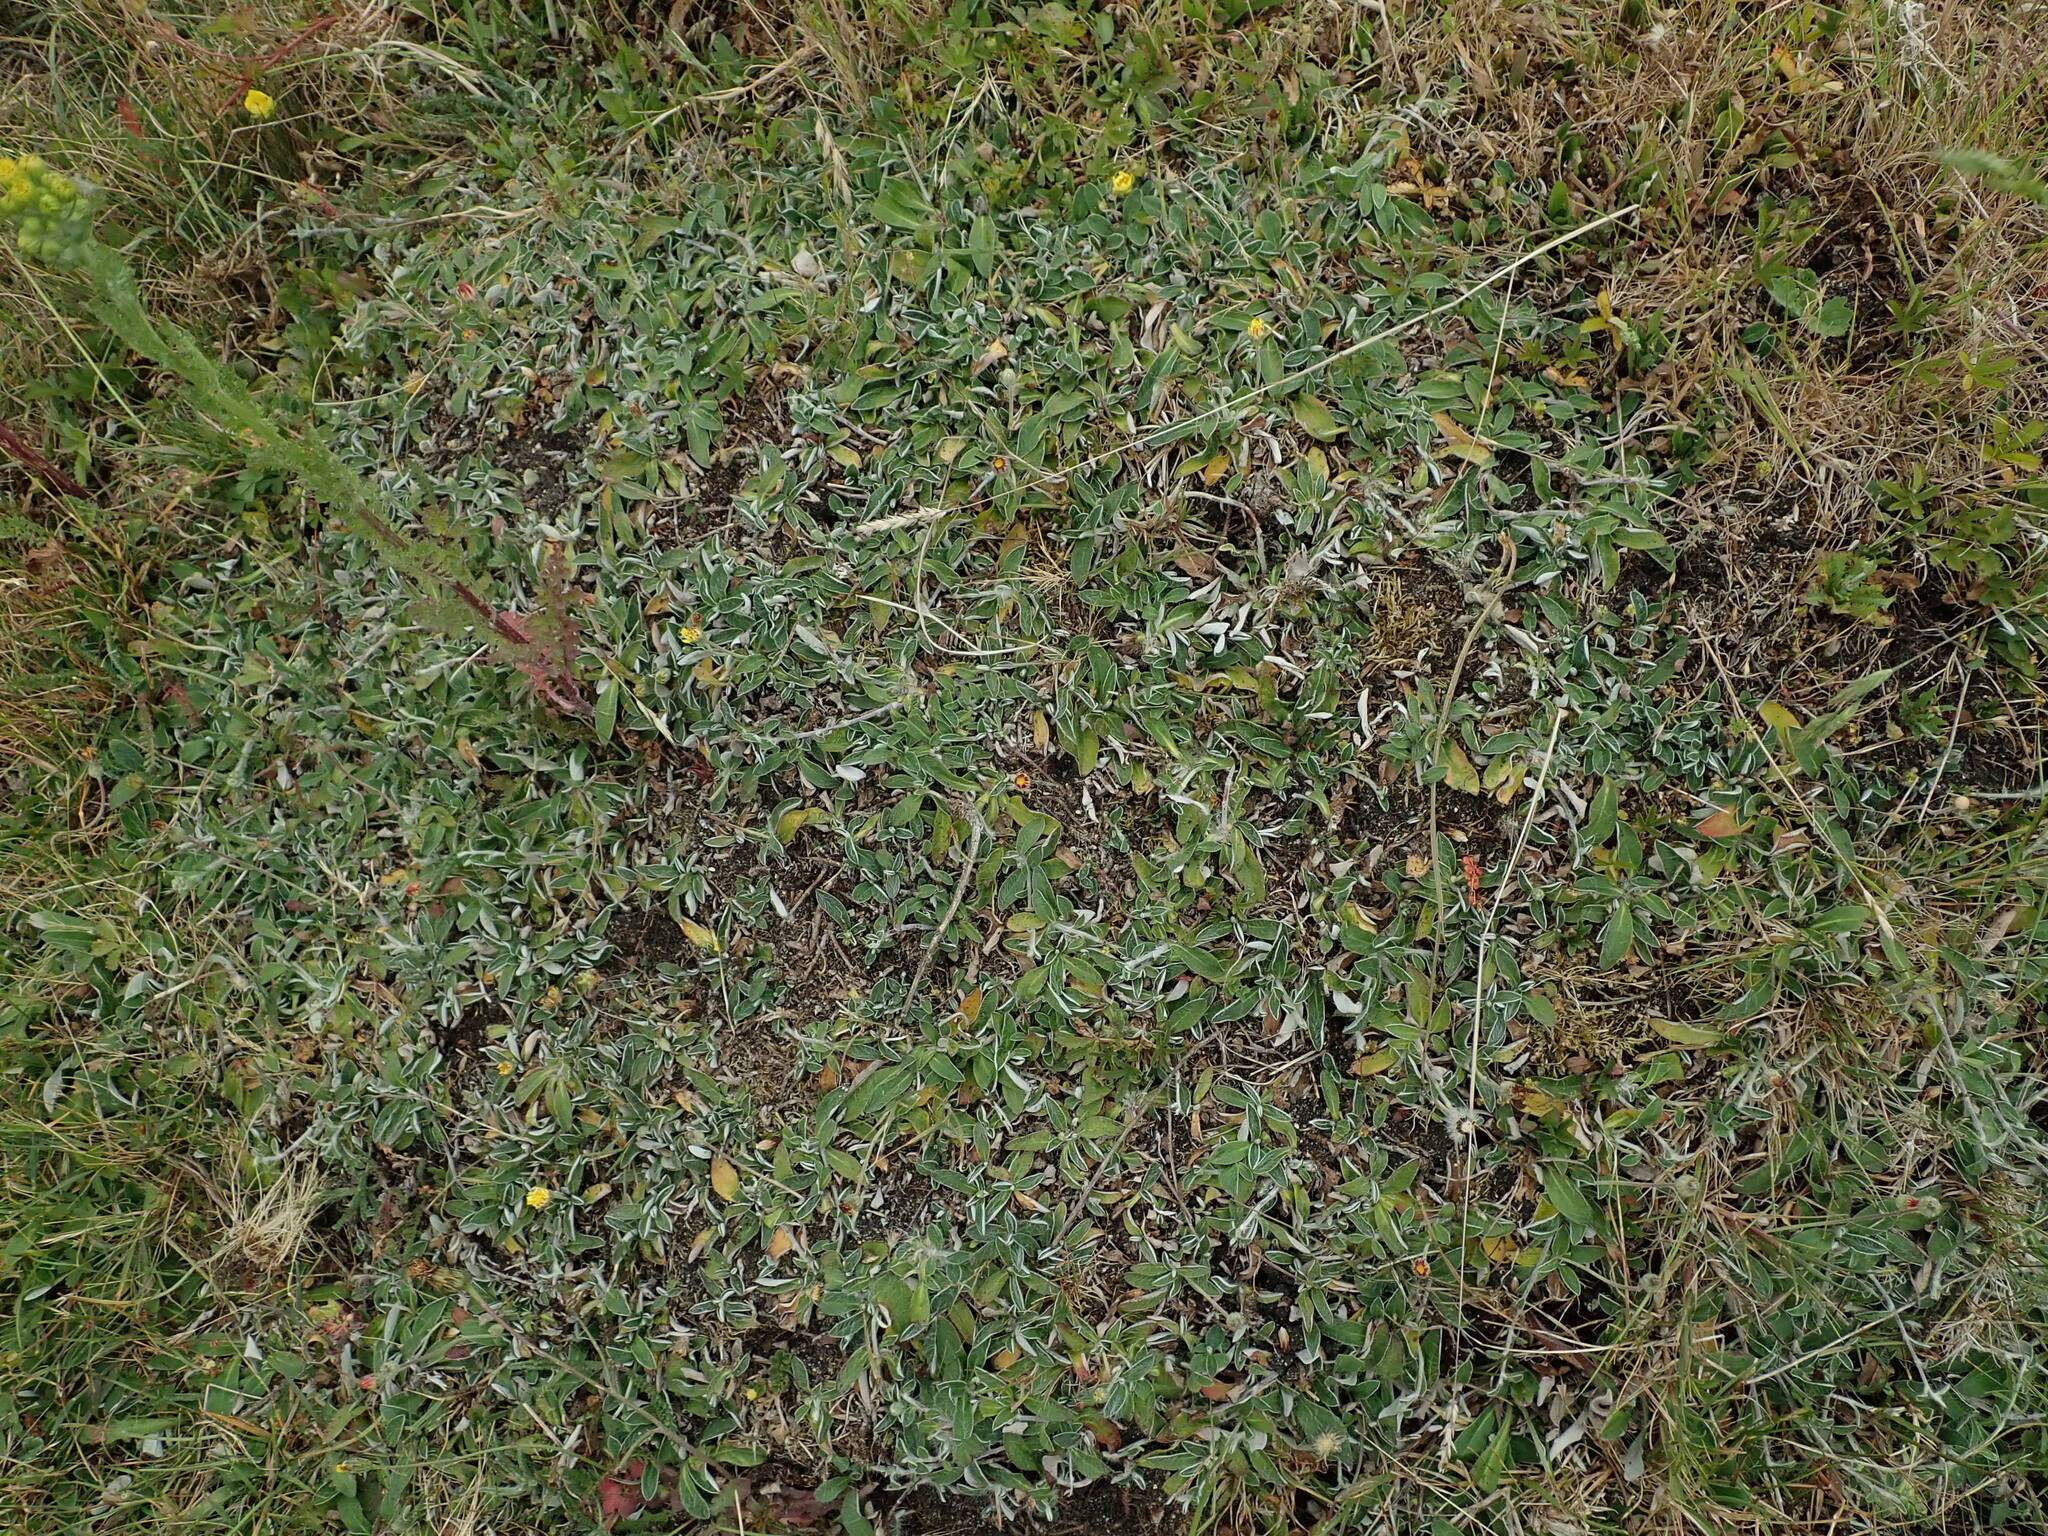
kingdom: Plantae
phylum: Tracheophyta
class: Magnoliopsida
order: Asterales
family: Asteraceae
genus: Pilosella
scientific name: Pilosella officinarum
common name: Mouse-ear hawkweed
